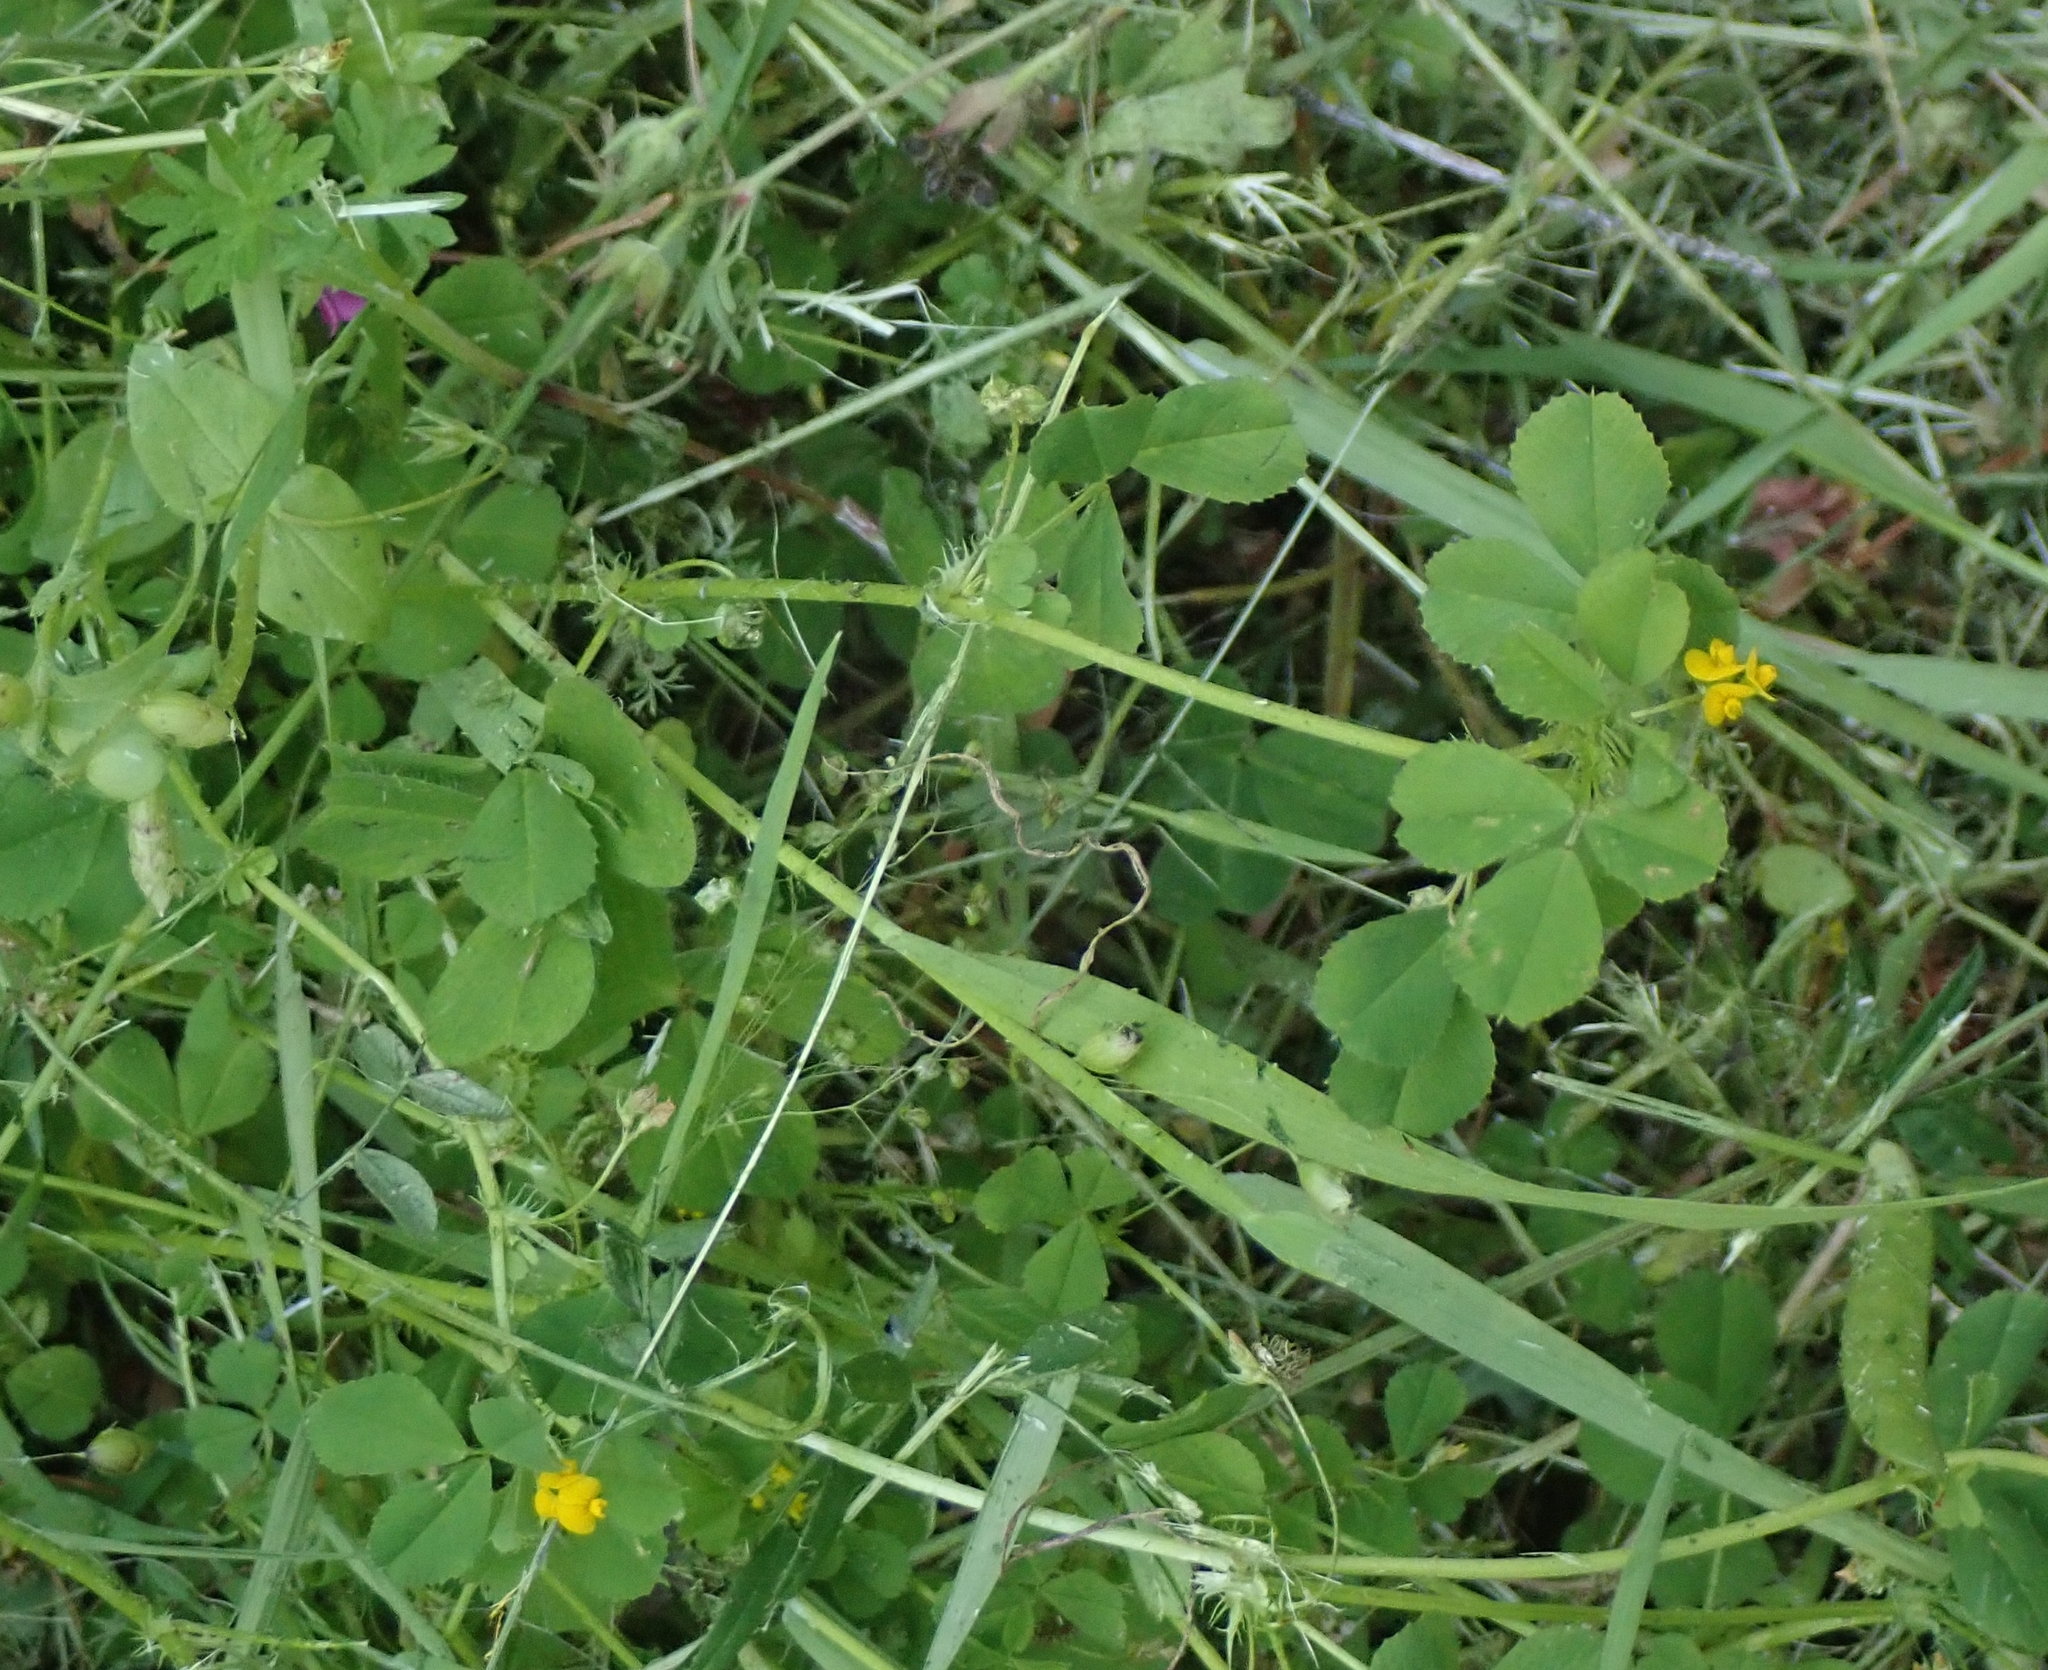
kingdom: Plantae
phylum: Tracheophyta
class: Magnoliopsida
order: Fabales
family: Fabaceae
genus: Medicago
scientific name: Medicago polymorpha
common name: Burclover
